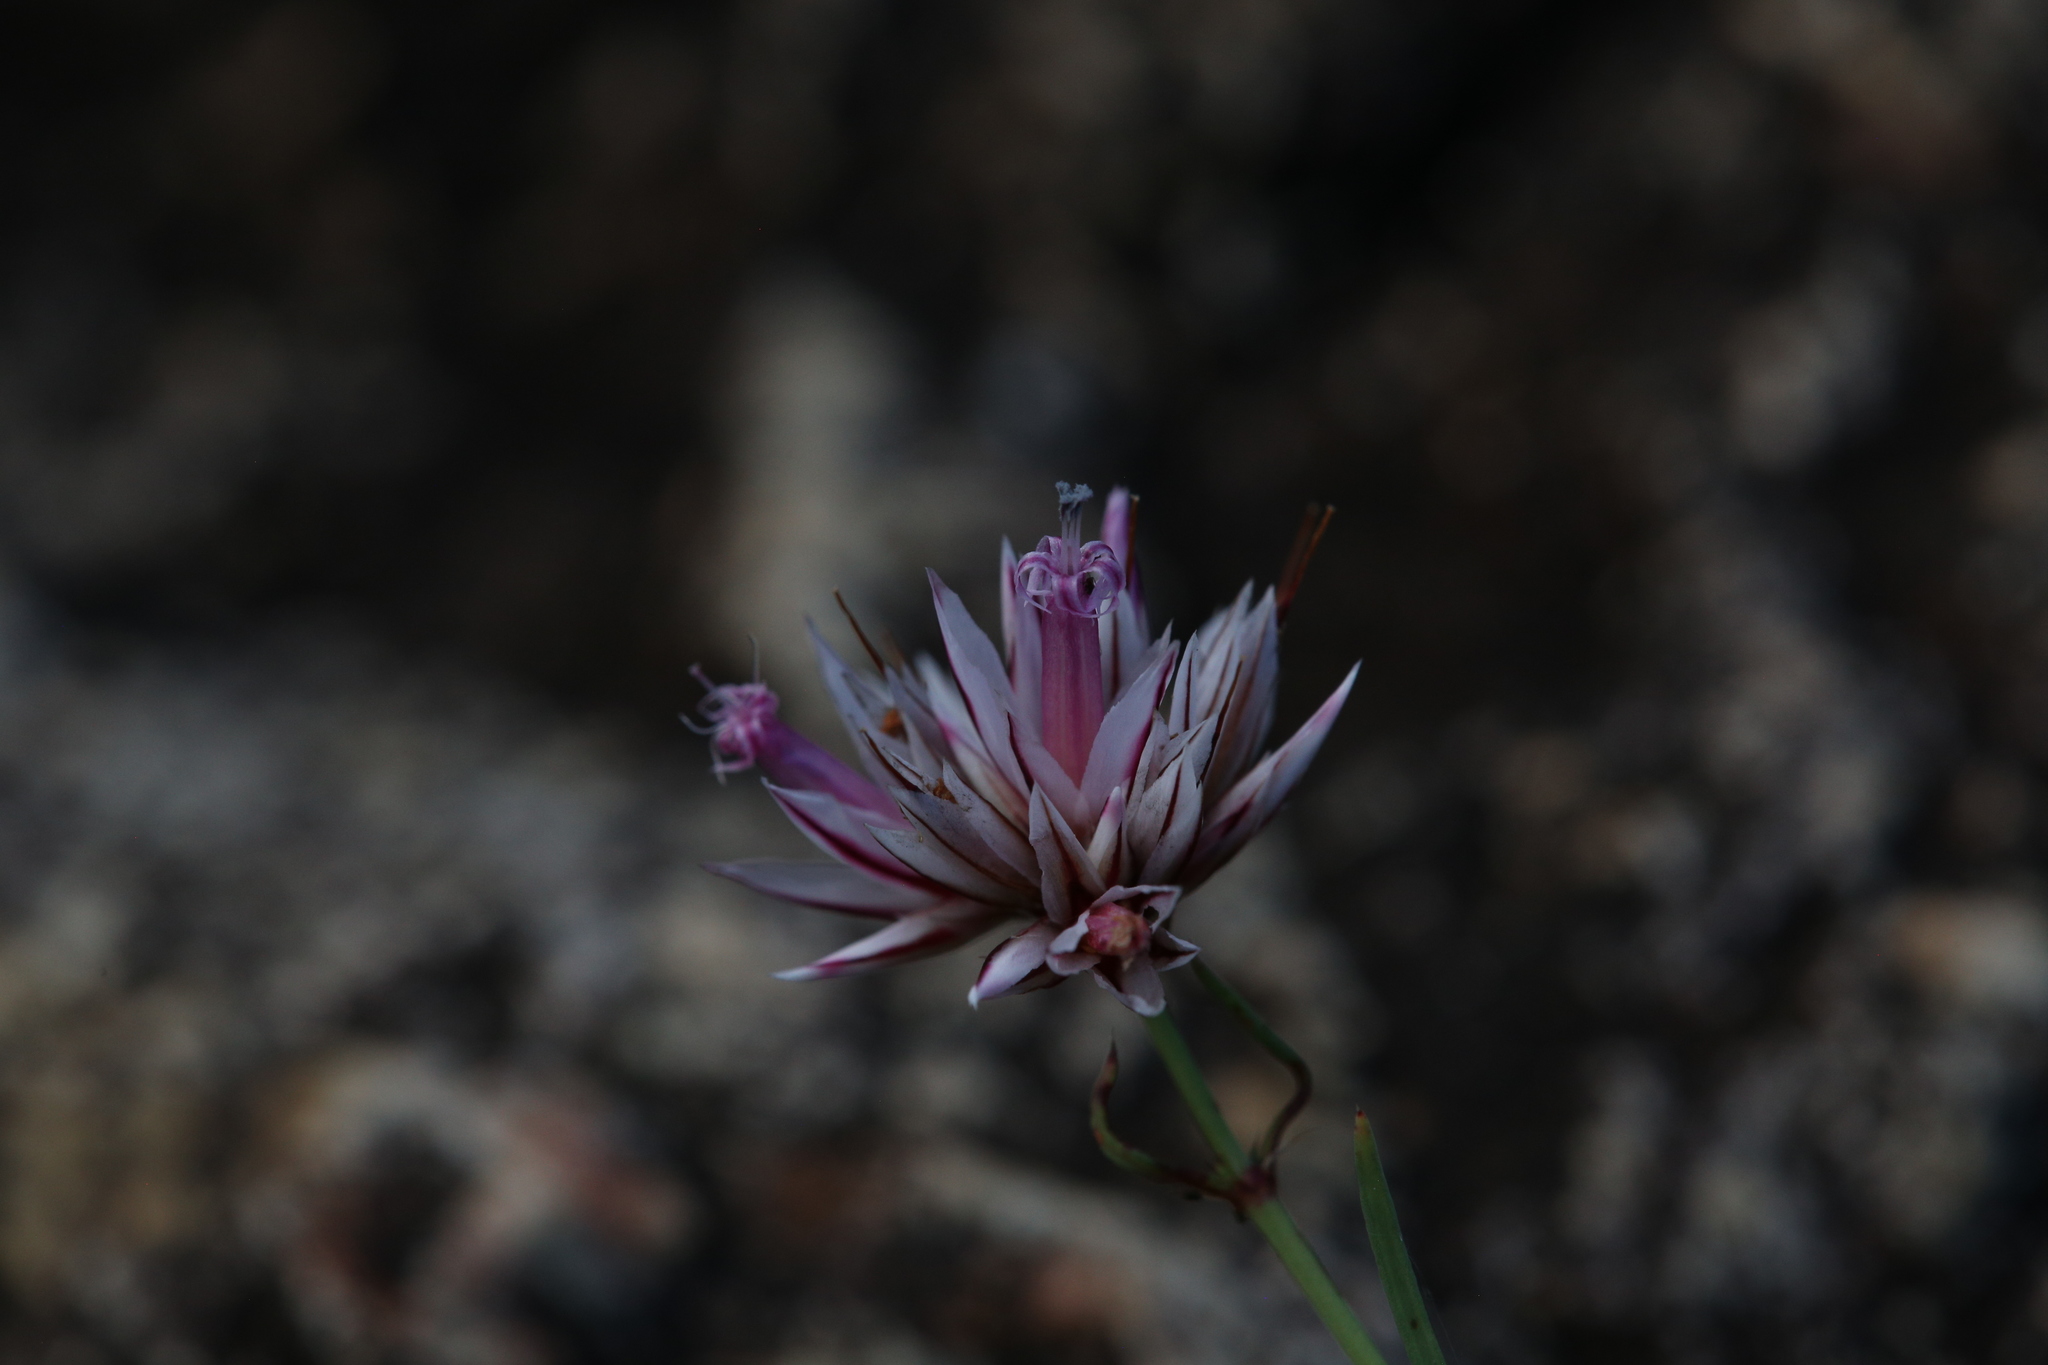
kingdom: Plantae
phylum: Tracheophyta
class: Magnoliopsida
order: Caryophyllales
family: Caryophyllaceae
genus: Polycarpaea
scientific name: Polycarpaea spirostylis
